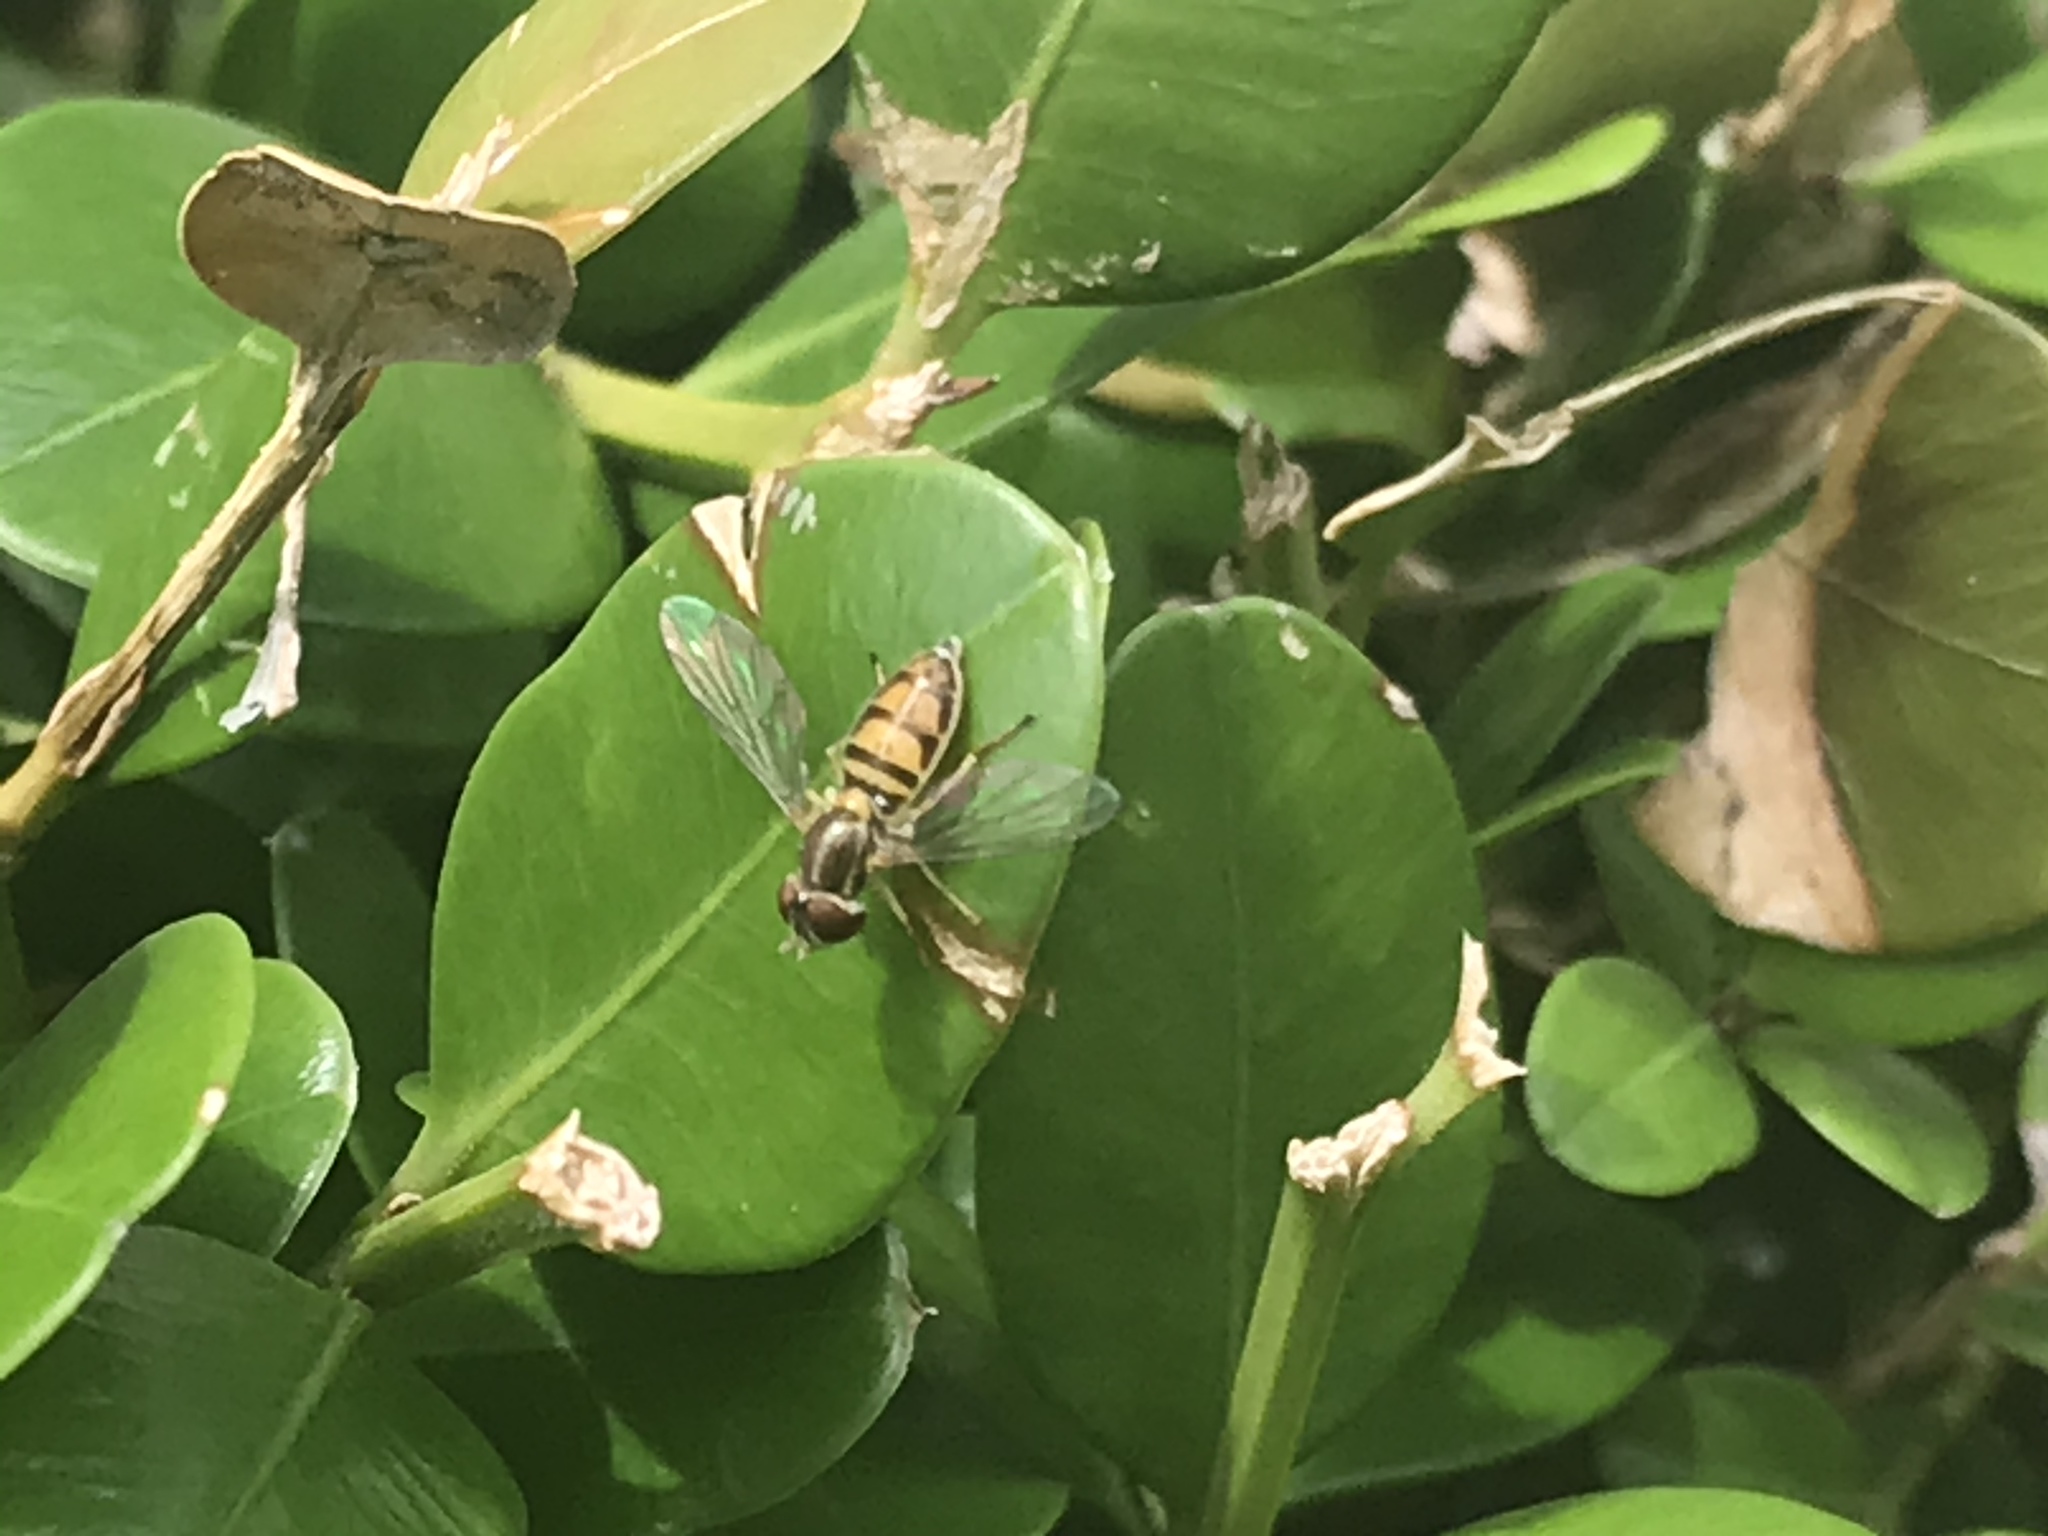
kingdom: Animalia
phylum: Arthropoda
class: Insecta
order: Diptera
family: Syrphidae
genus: Toxomerus
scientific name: Toxomerus marginatus
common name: Syrphid fly
